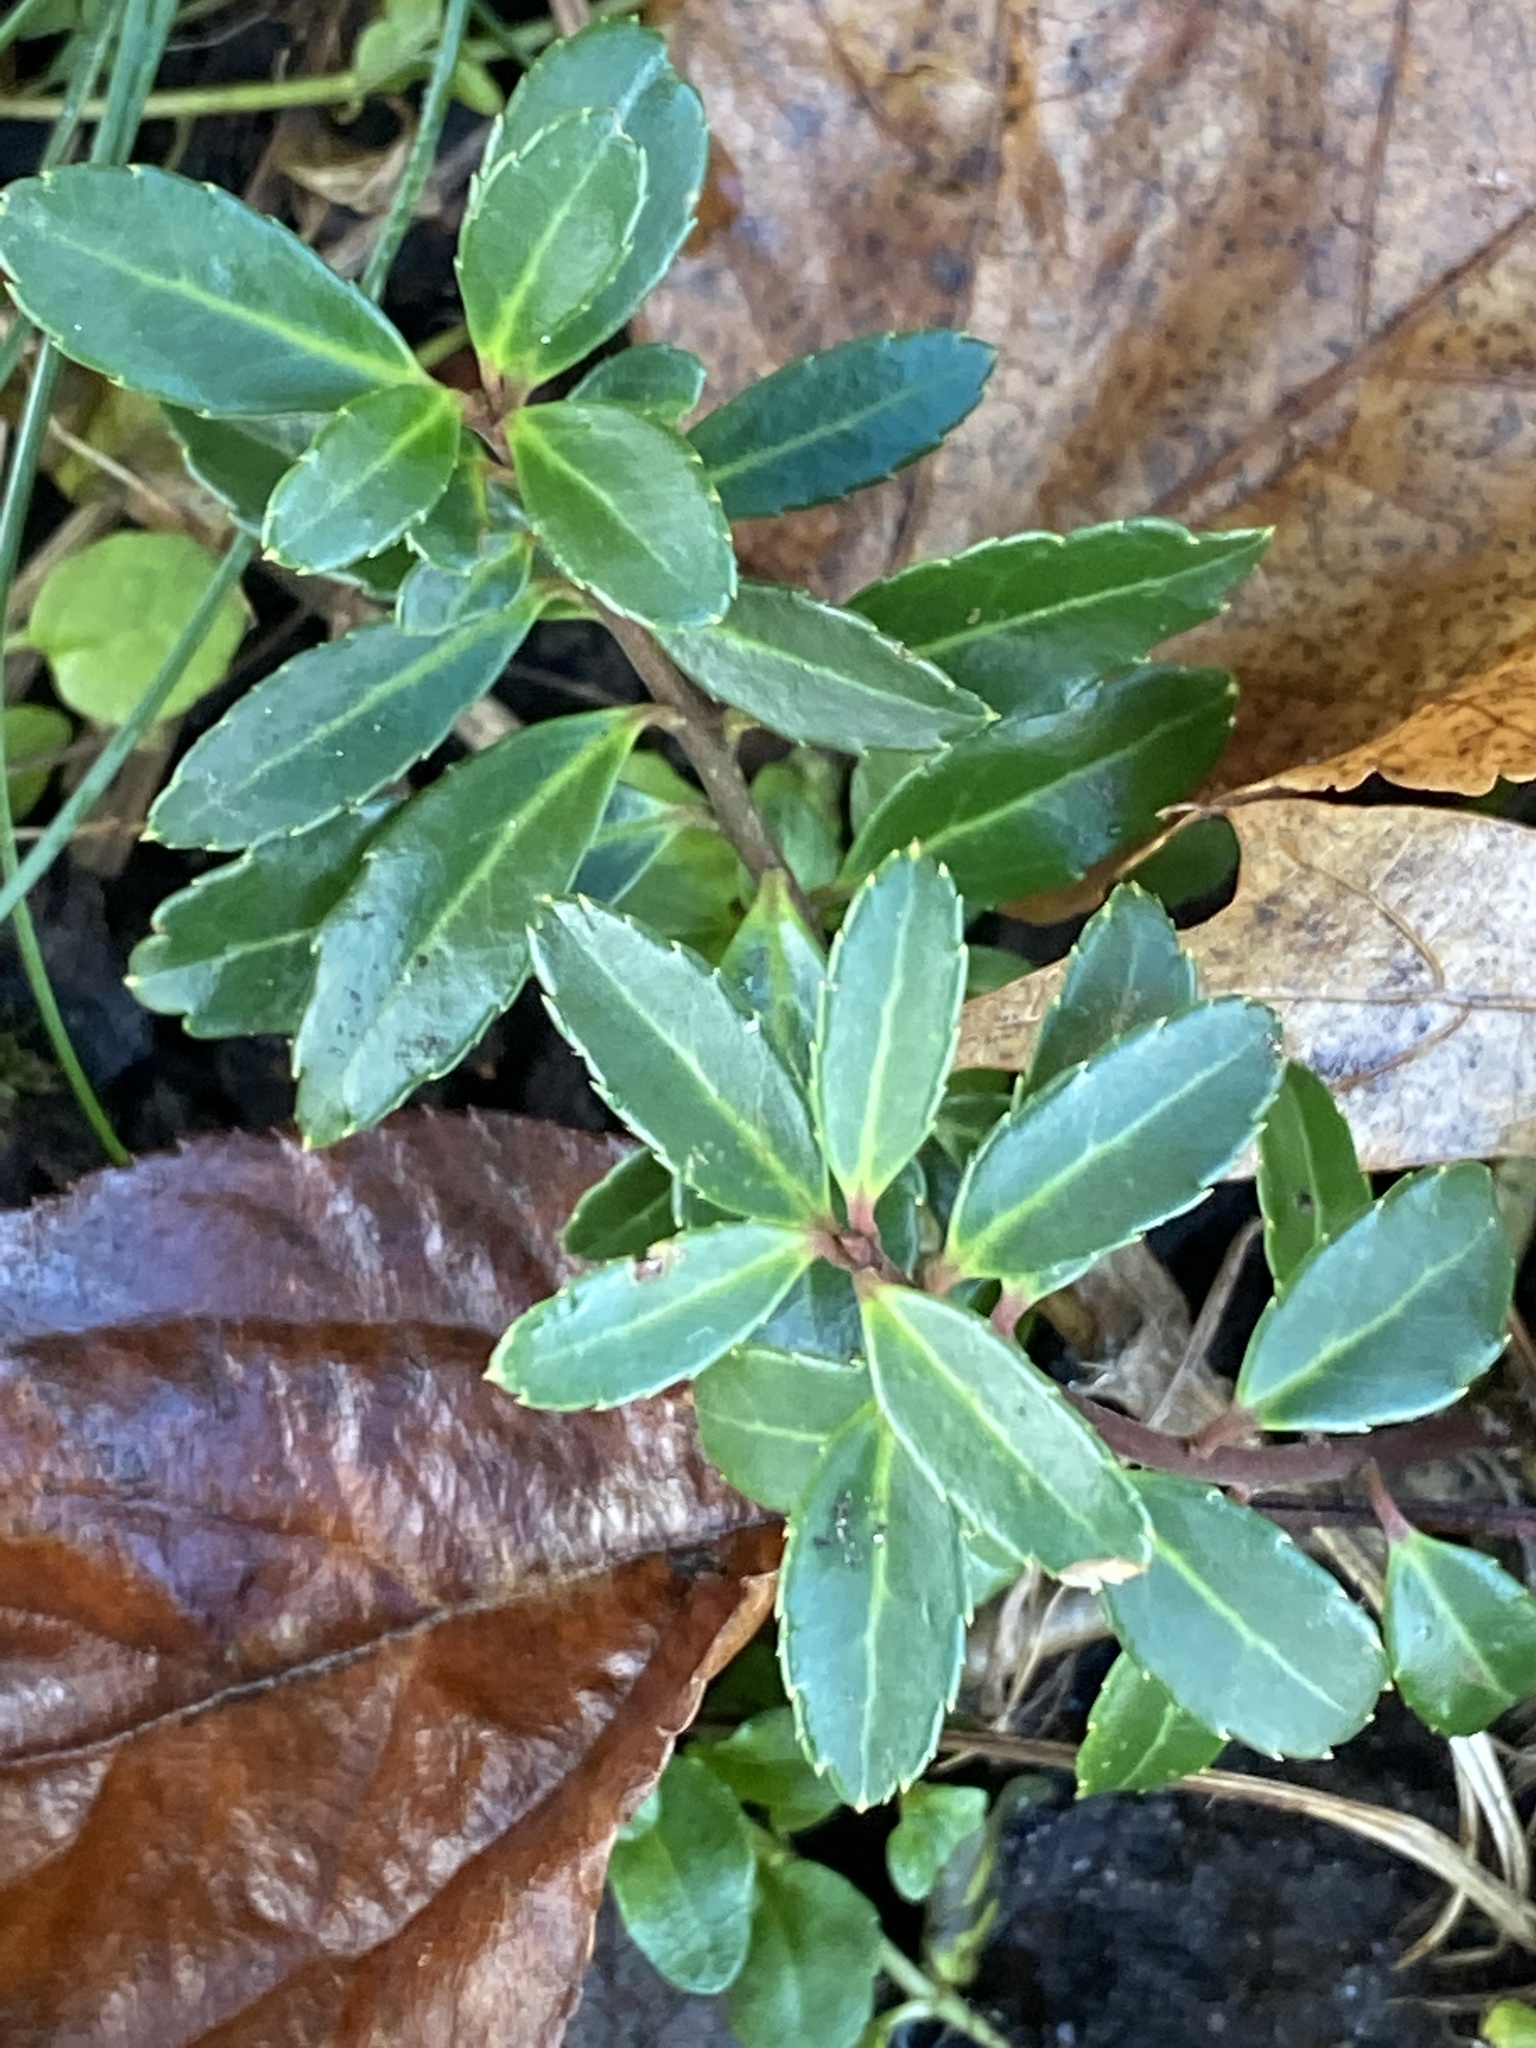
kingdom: Plantae
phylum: Tracheophyta
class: Magnoliopsida
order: Aquifoliales
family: Aquifoliaceae
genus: Ilex
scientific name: Ilex crenata
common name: Japanese holly
